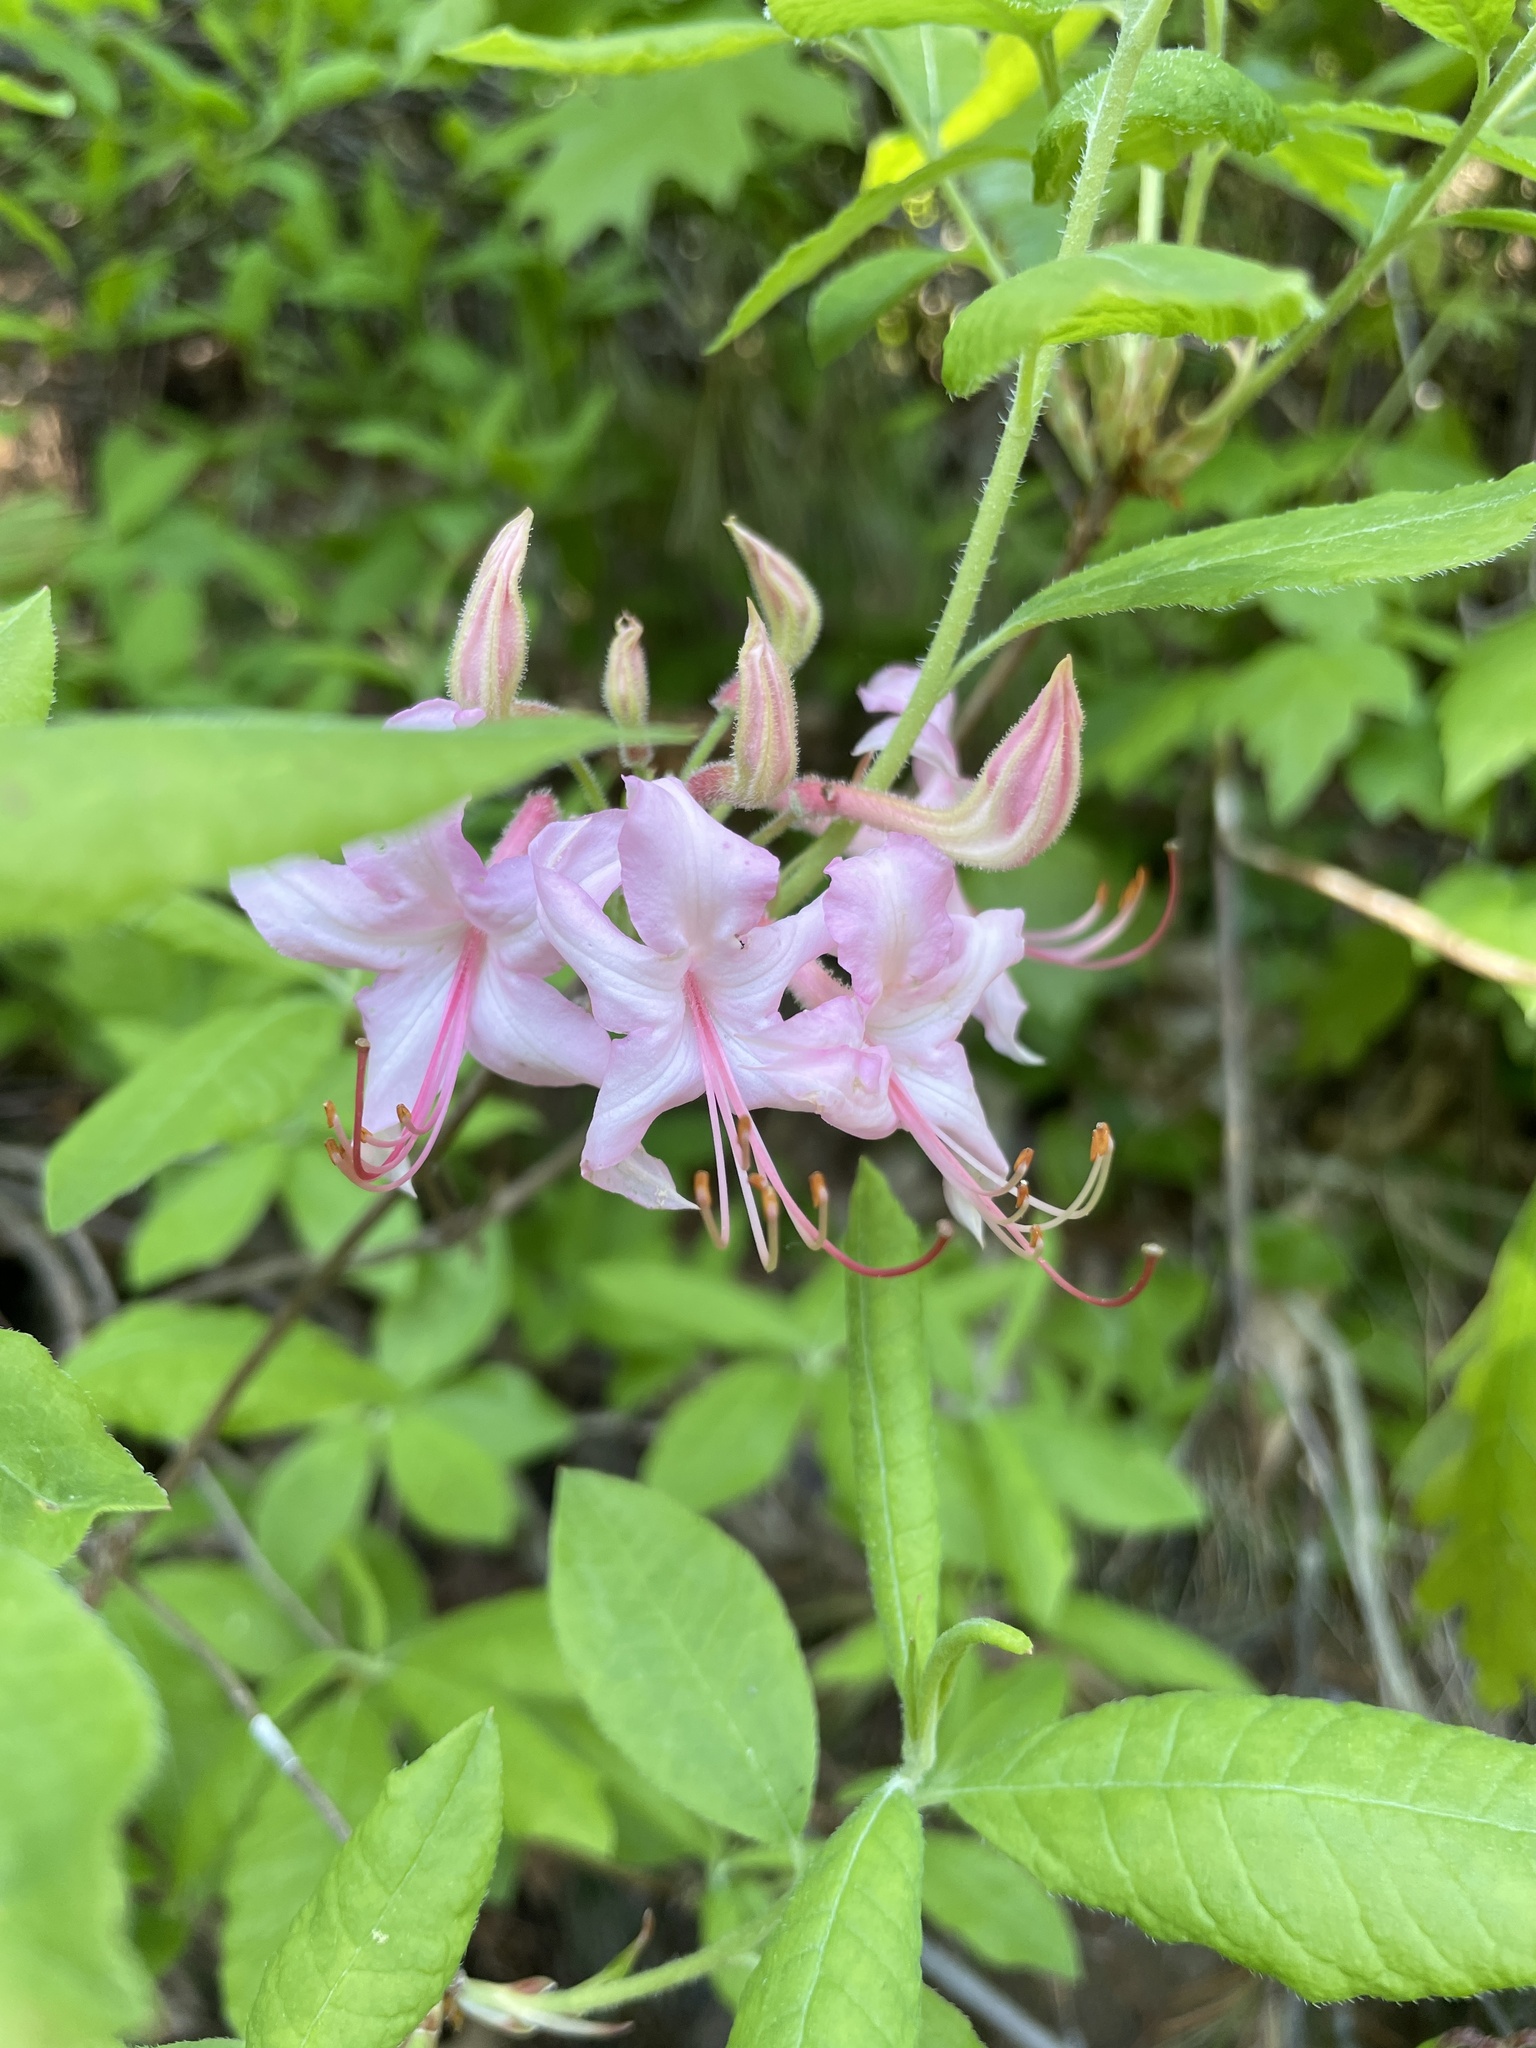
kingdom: Plantae
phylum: Tracheophyta
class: Magnoliopsida
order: Ericales
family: Ericaceae
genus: Rhododendron
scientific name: Rhododendron roseum
